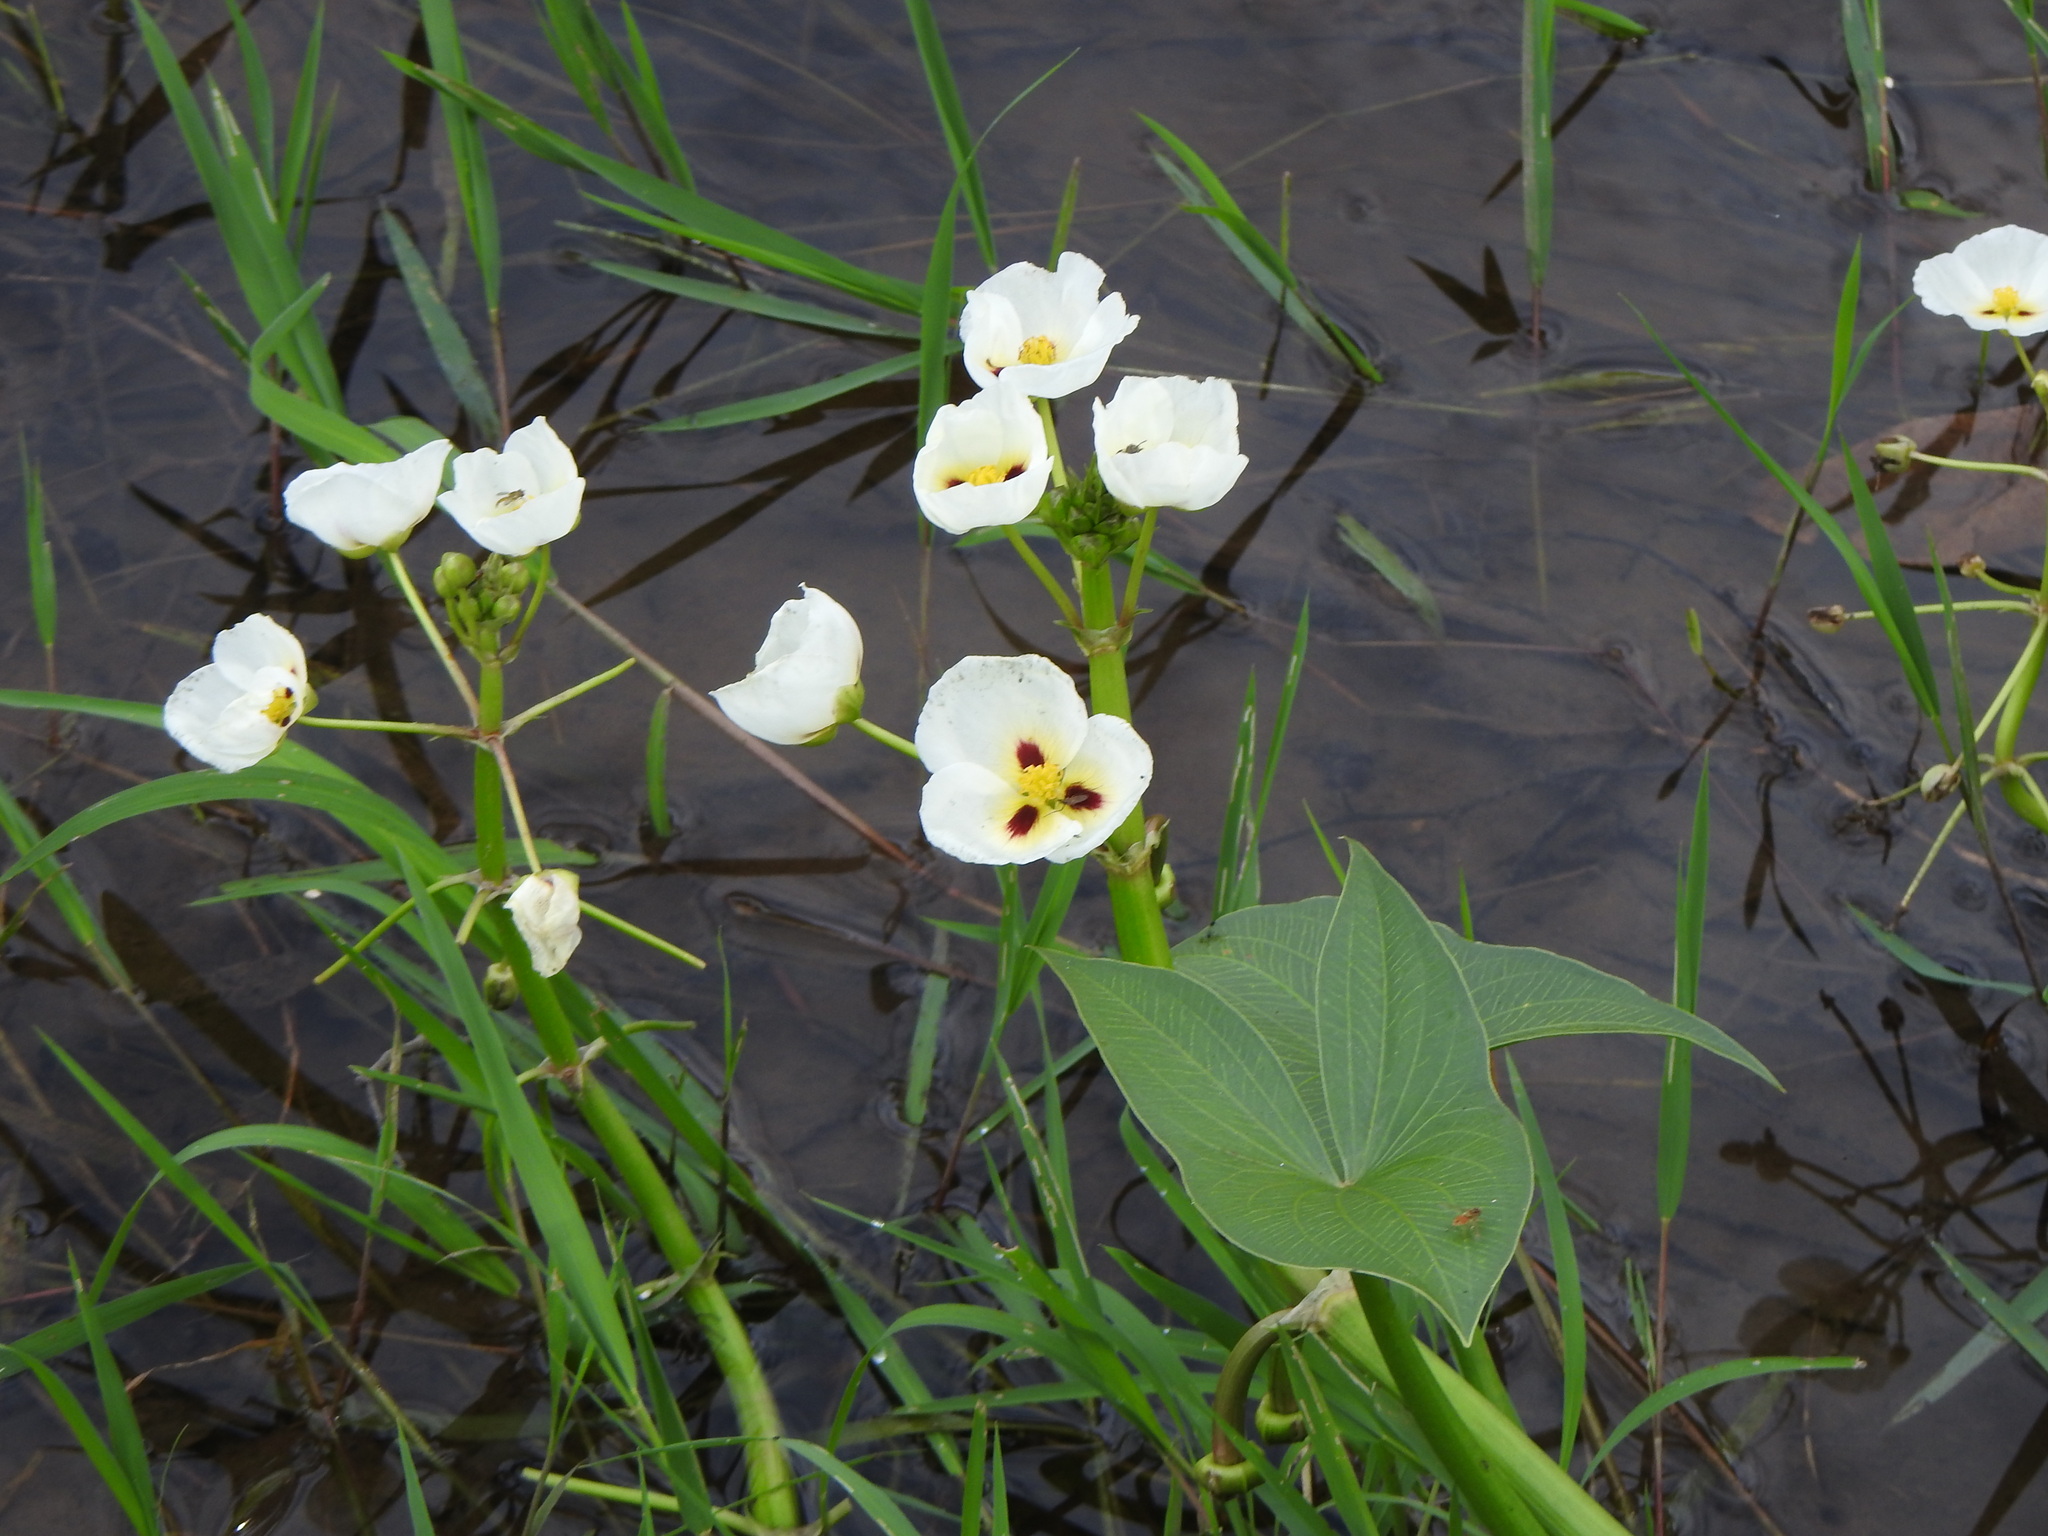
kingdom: Plantae
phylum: Tracheophyta
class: Liliopsida
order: Alismatales
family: Alismataceae
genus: Sagittaria
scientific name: Sagittaria montevidensis
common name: Giant arrowhead
